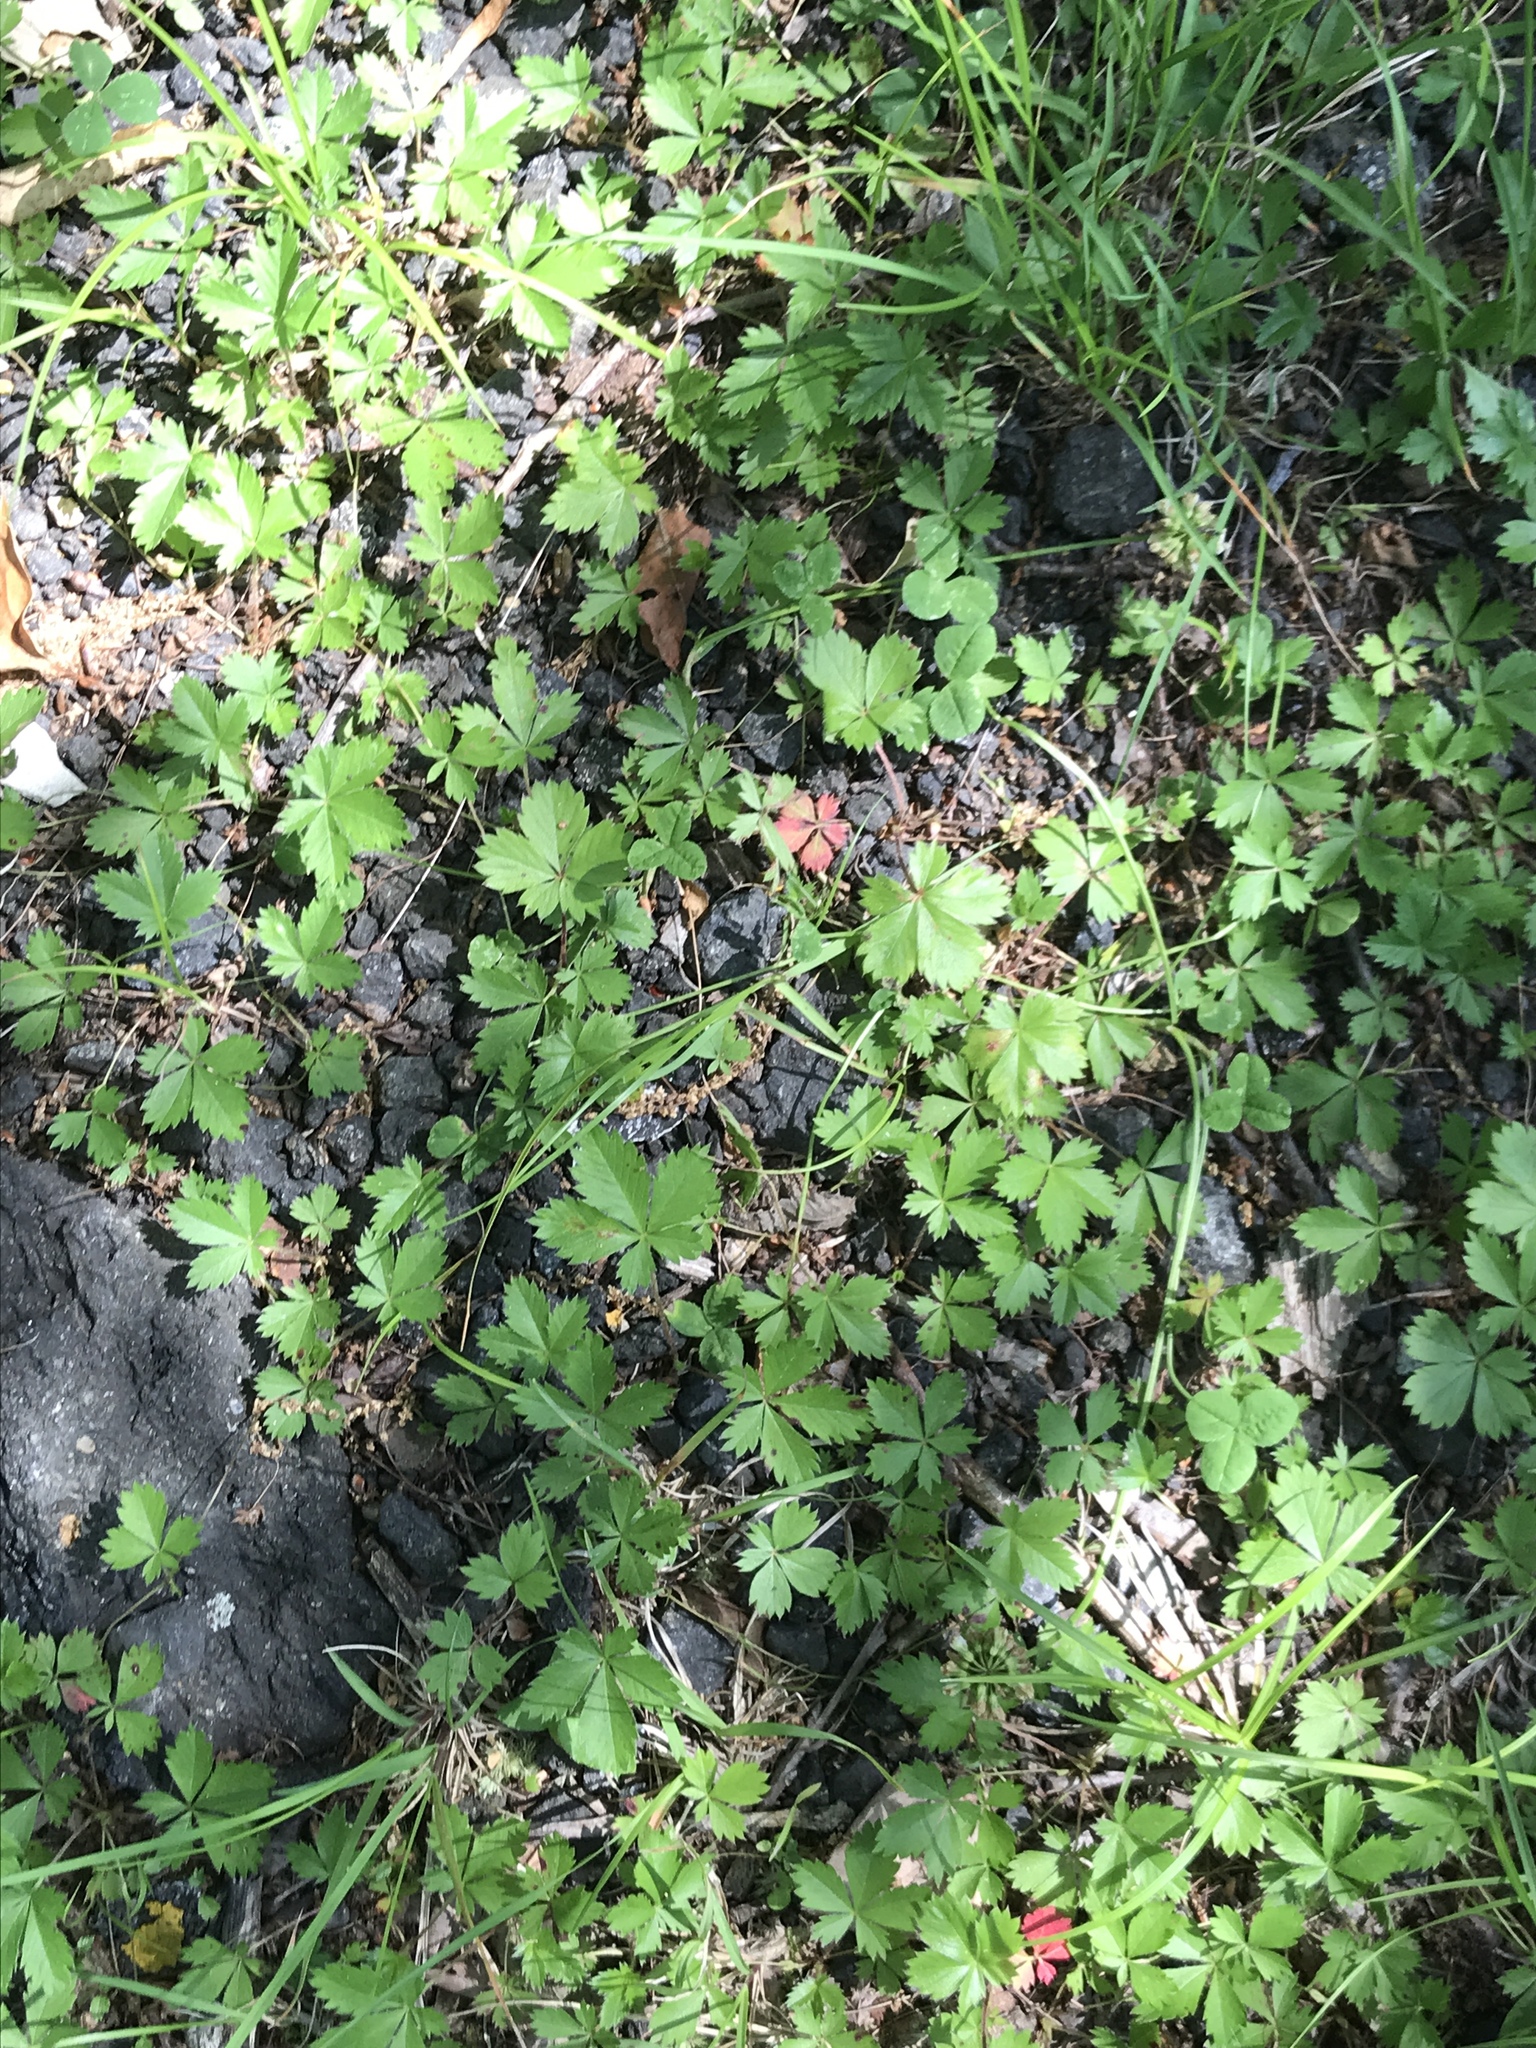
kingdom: Plantae
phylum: Tracheophyta
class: Magnoliopsida
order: Rosales
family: Rosaceae
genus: Potentilla
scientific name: Potentilla canadensis
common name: Canada cinquefoil
